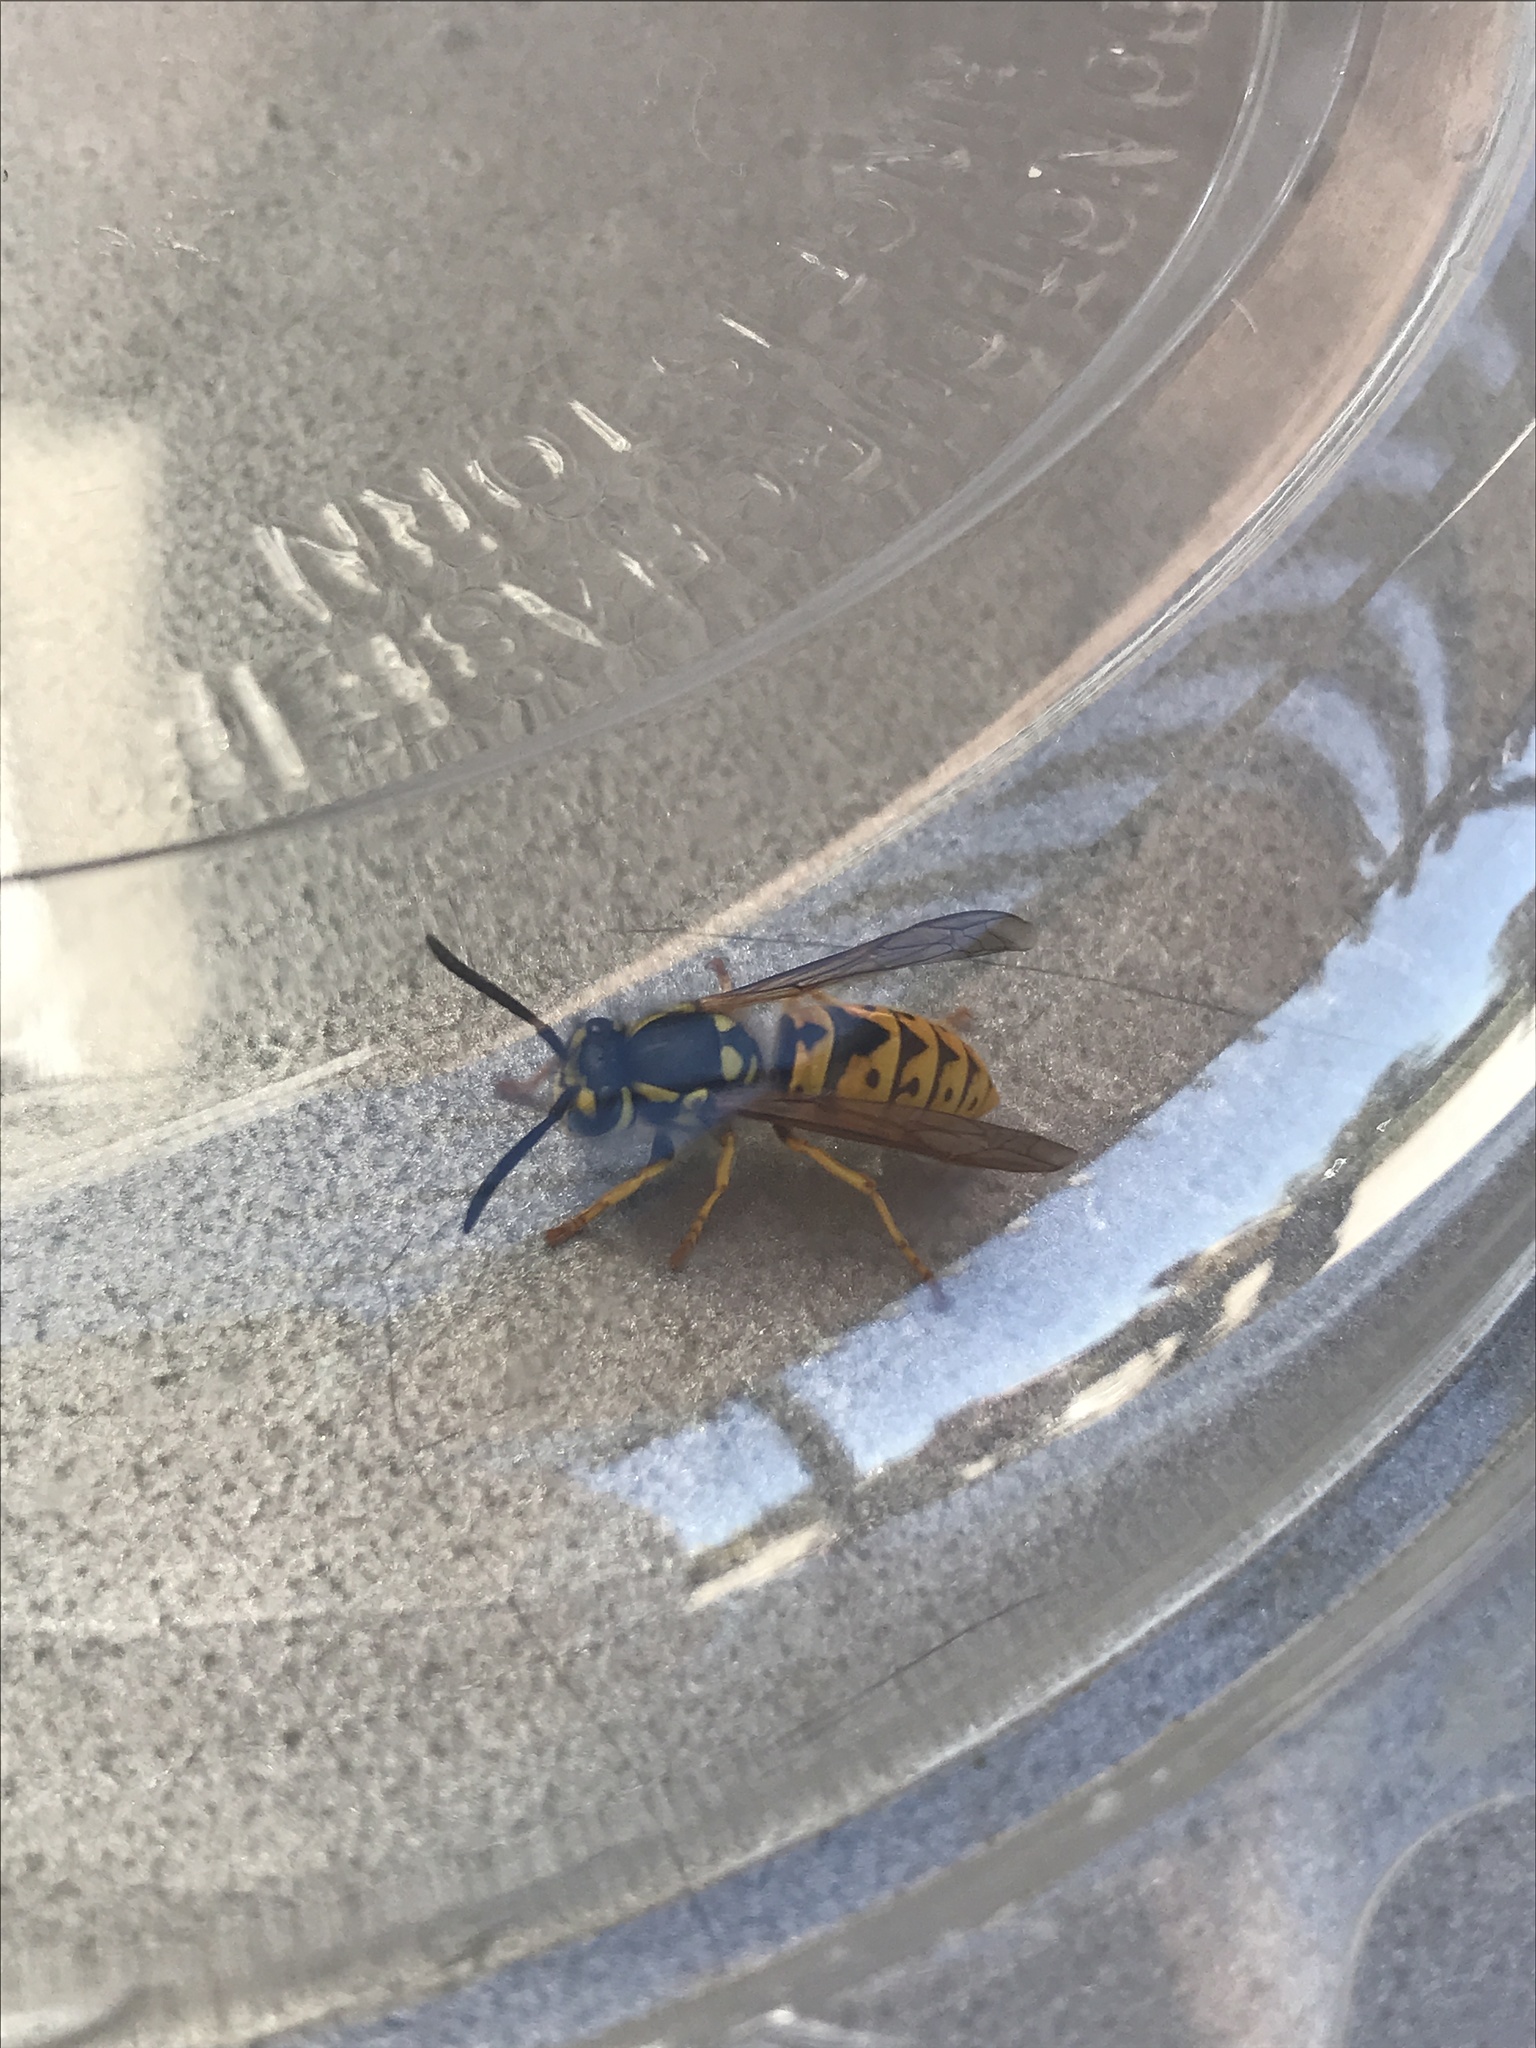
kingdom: Animalia
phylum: Arthropoda
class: Insecta
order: Hymenoptera
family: Vespidae
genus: Vespula
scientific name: Vespula germanica
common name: German wasp
